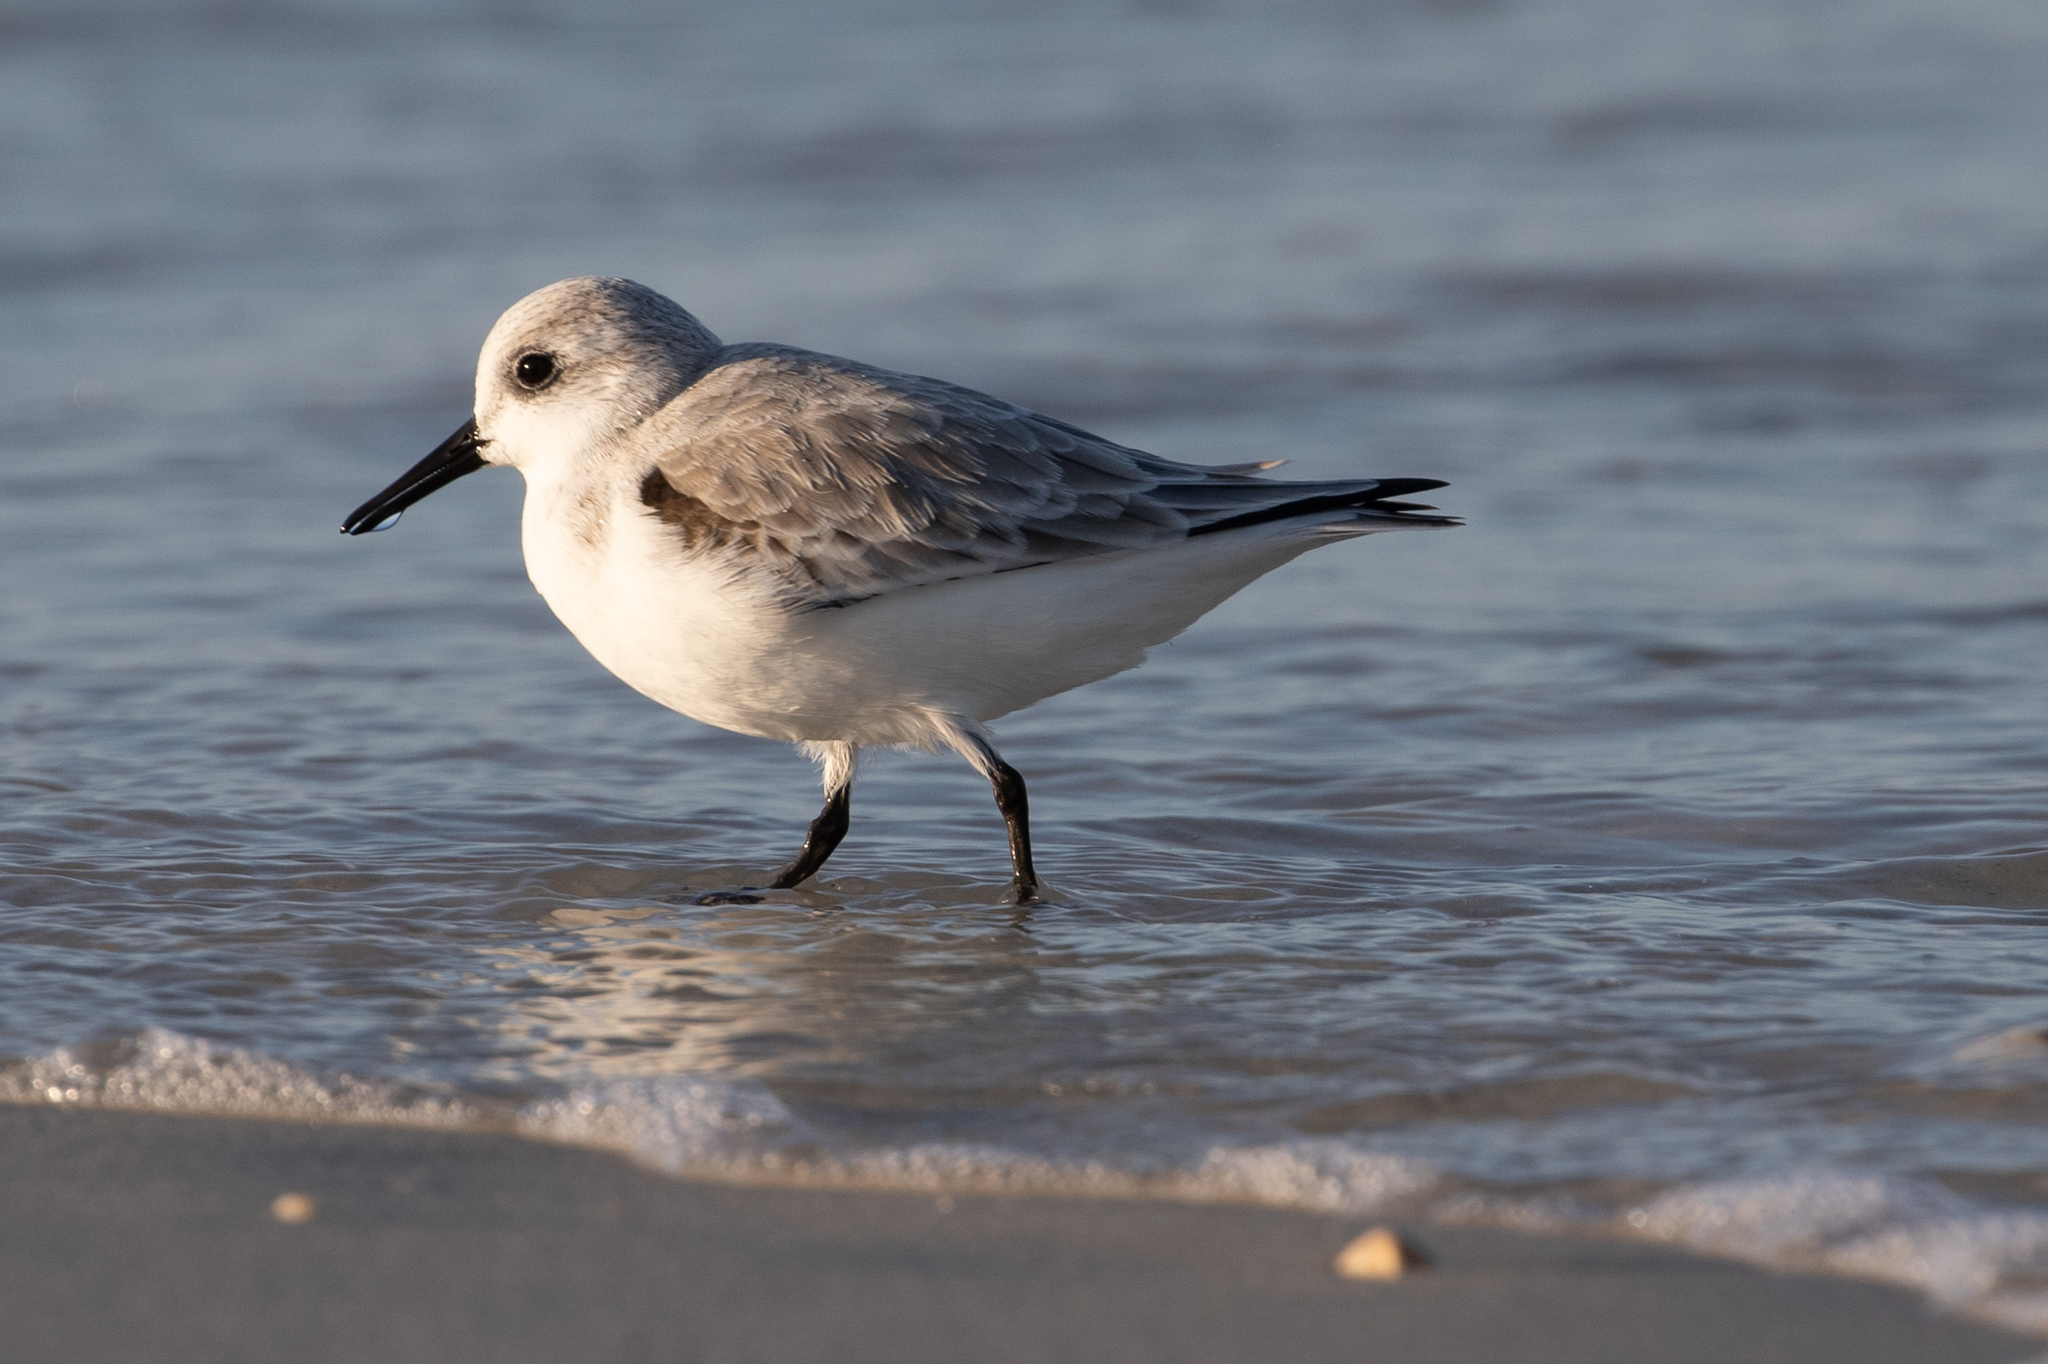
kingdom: Animalia
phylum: Chordata
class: Aves
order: Charadriiformes
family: Scolopacidae
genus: Calidris
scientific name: Calidris alba
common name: Sanderling
